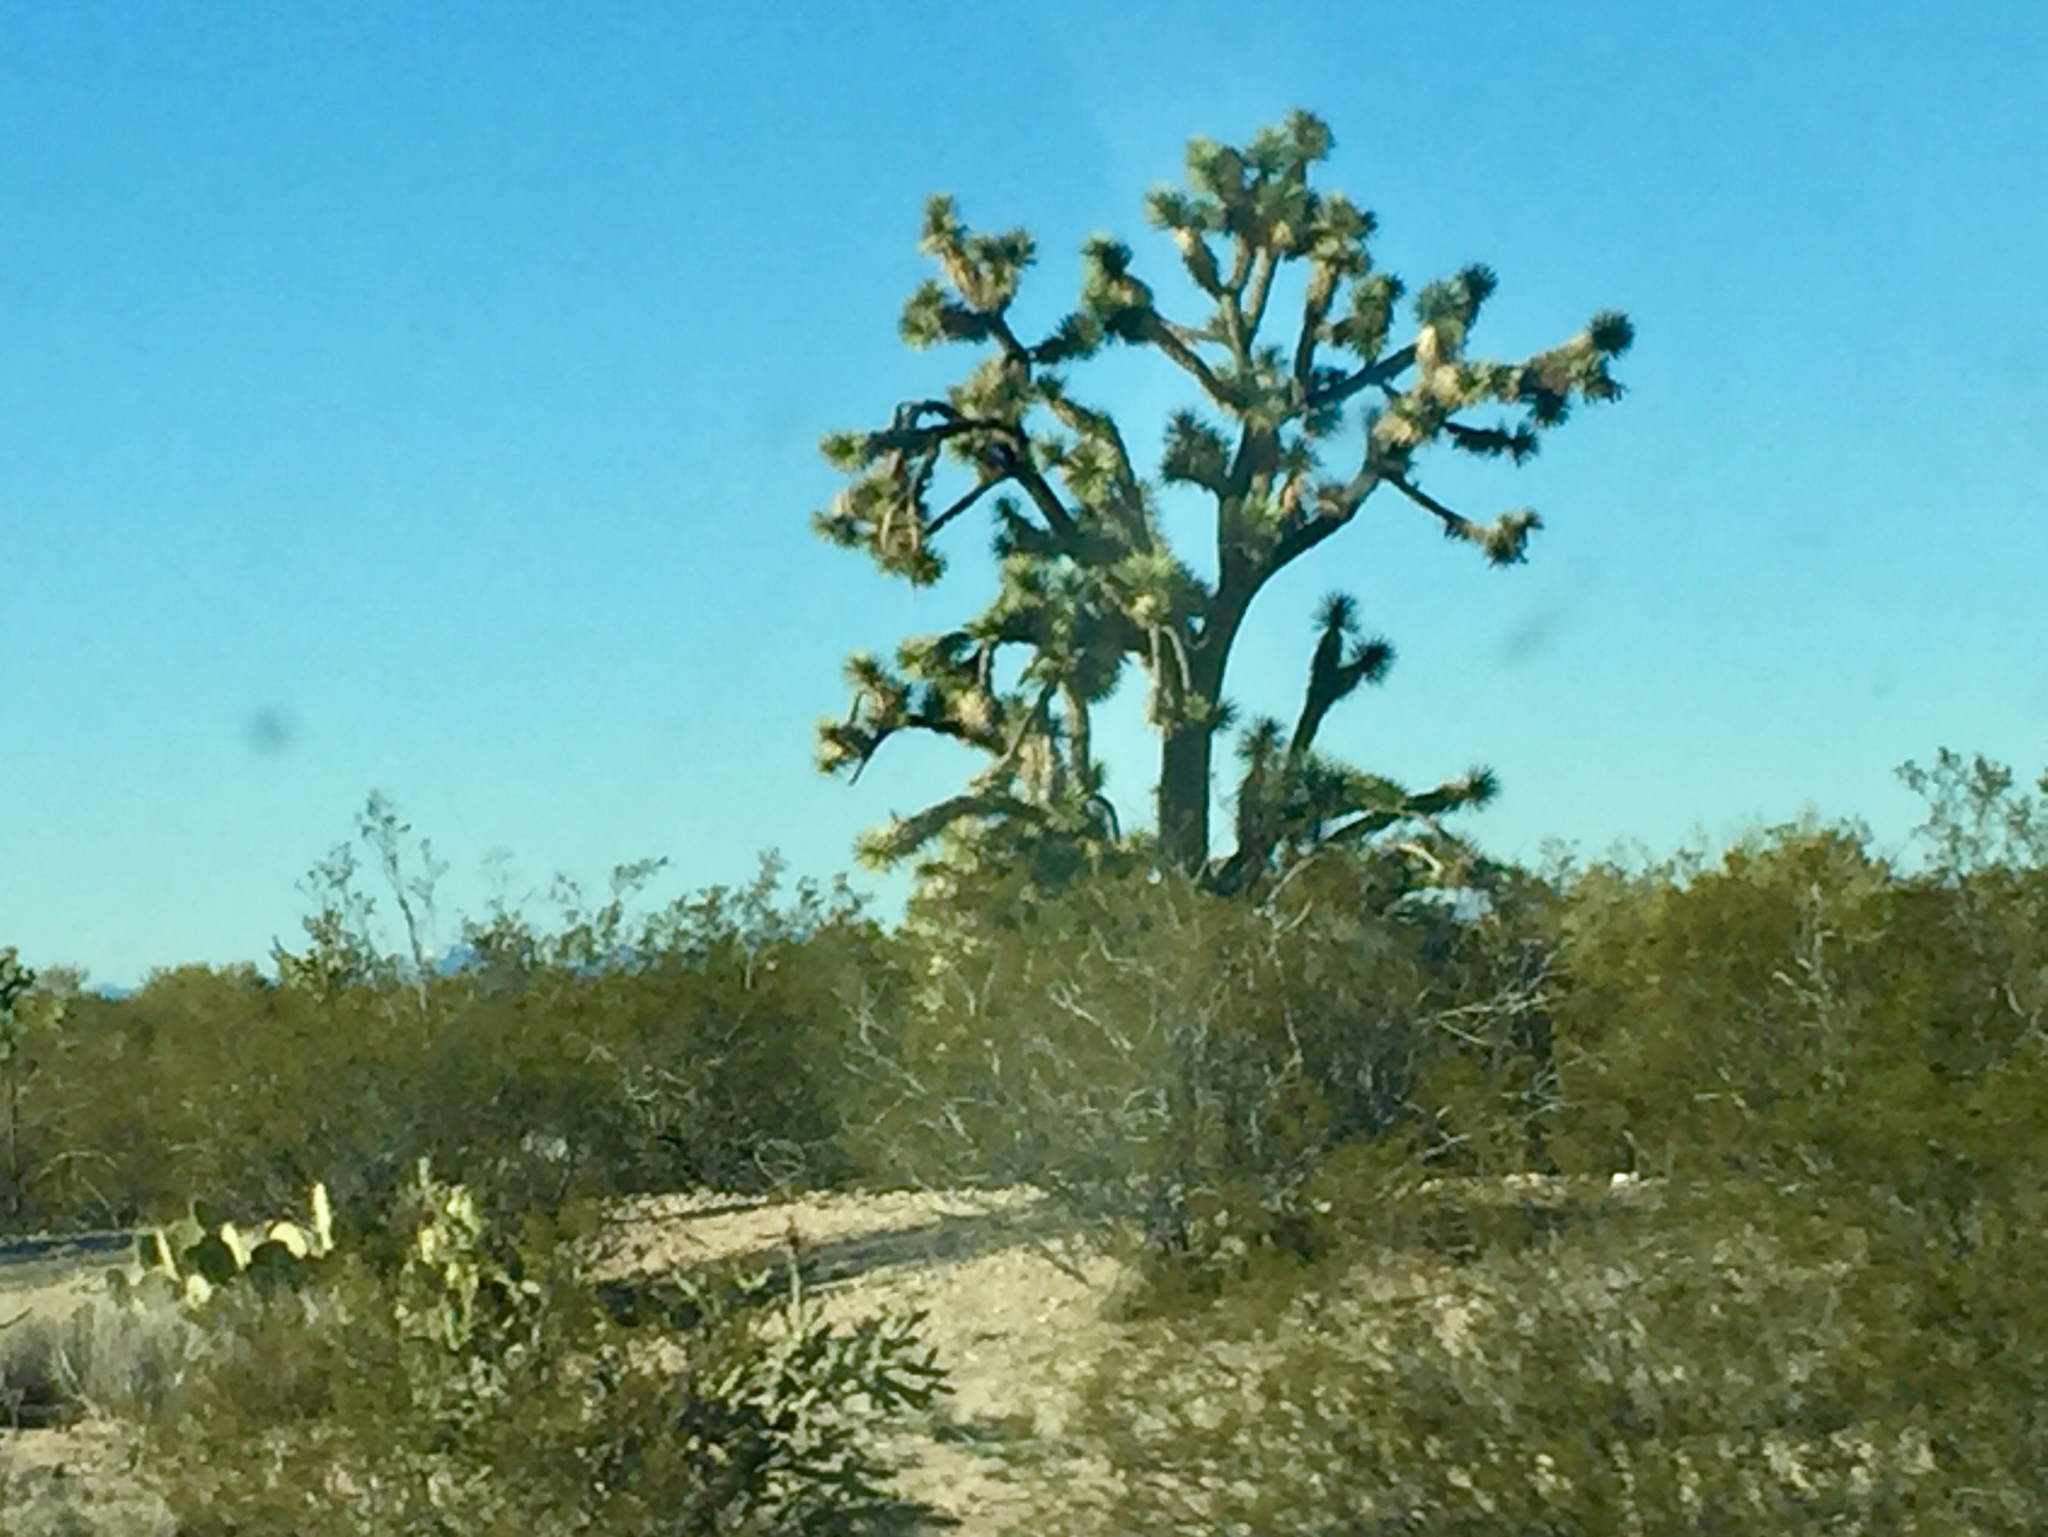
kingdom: Plantae
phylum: Tracheophyta
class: Liliopsida
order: Asparagales
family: Asparagaceae
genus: Yucca
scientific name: Yucca brevifolia
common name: Joshua tree
